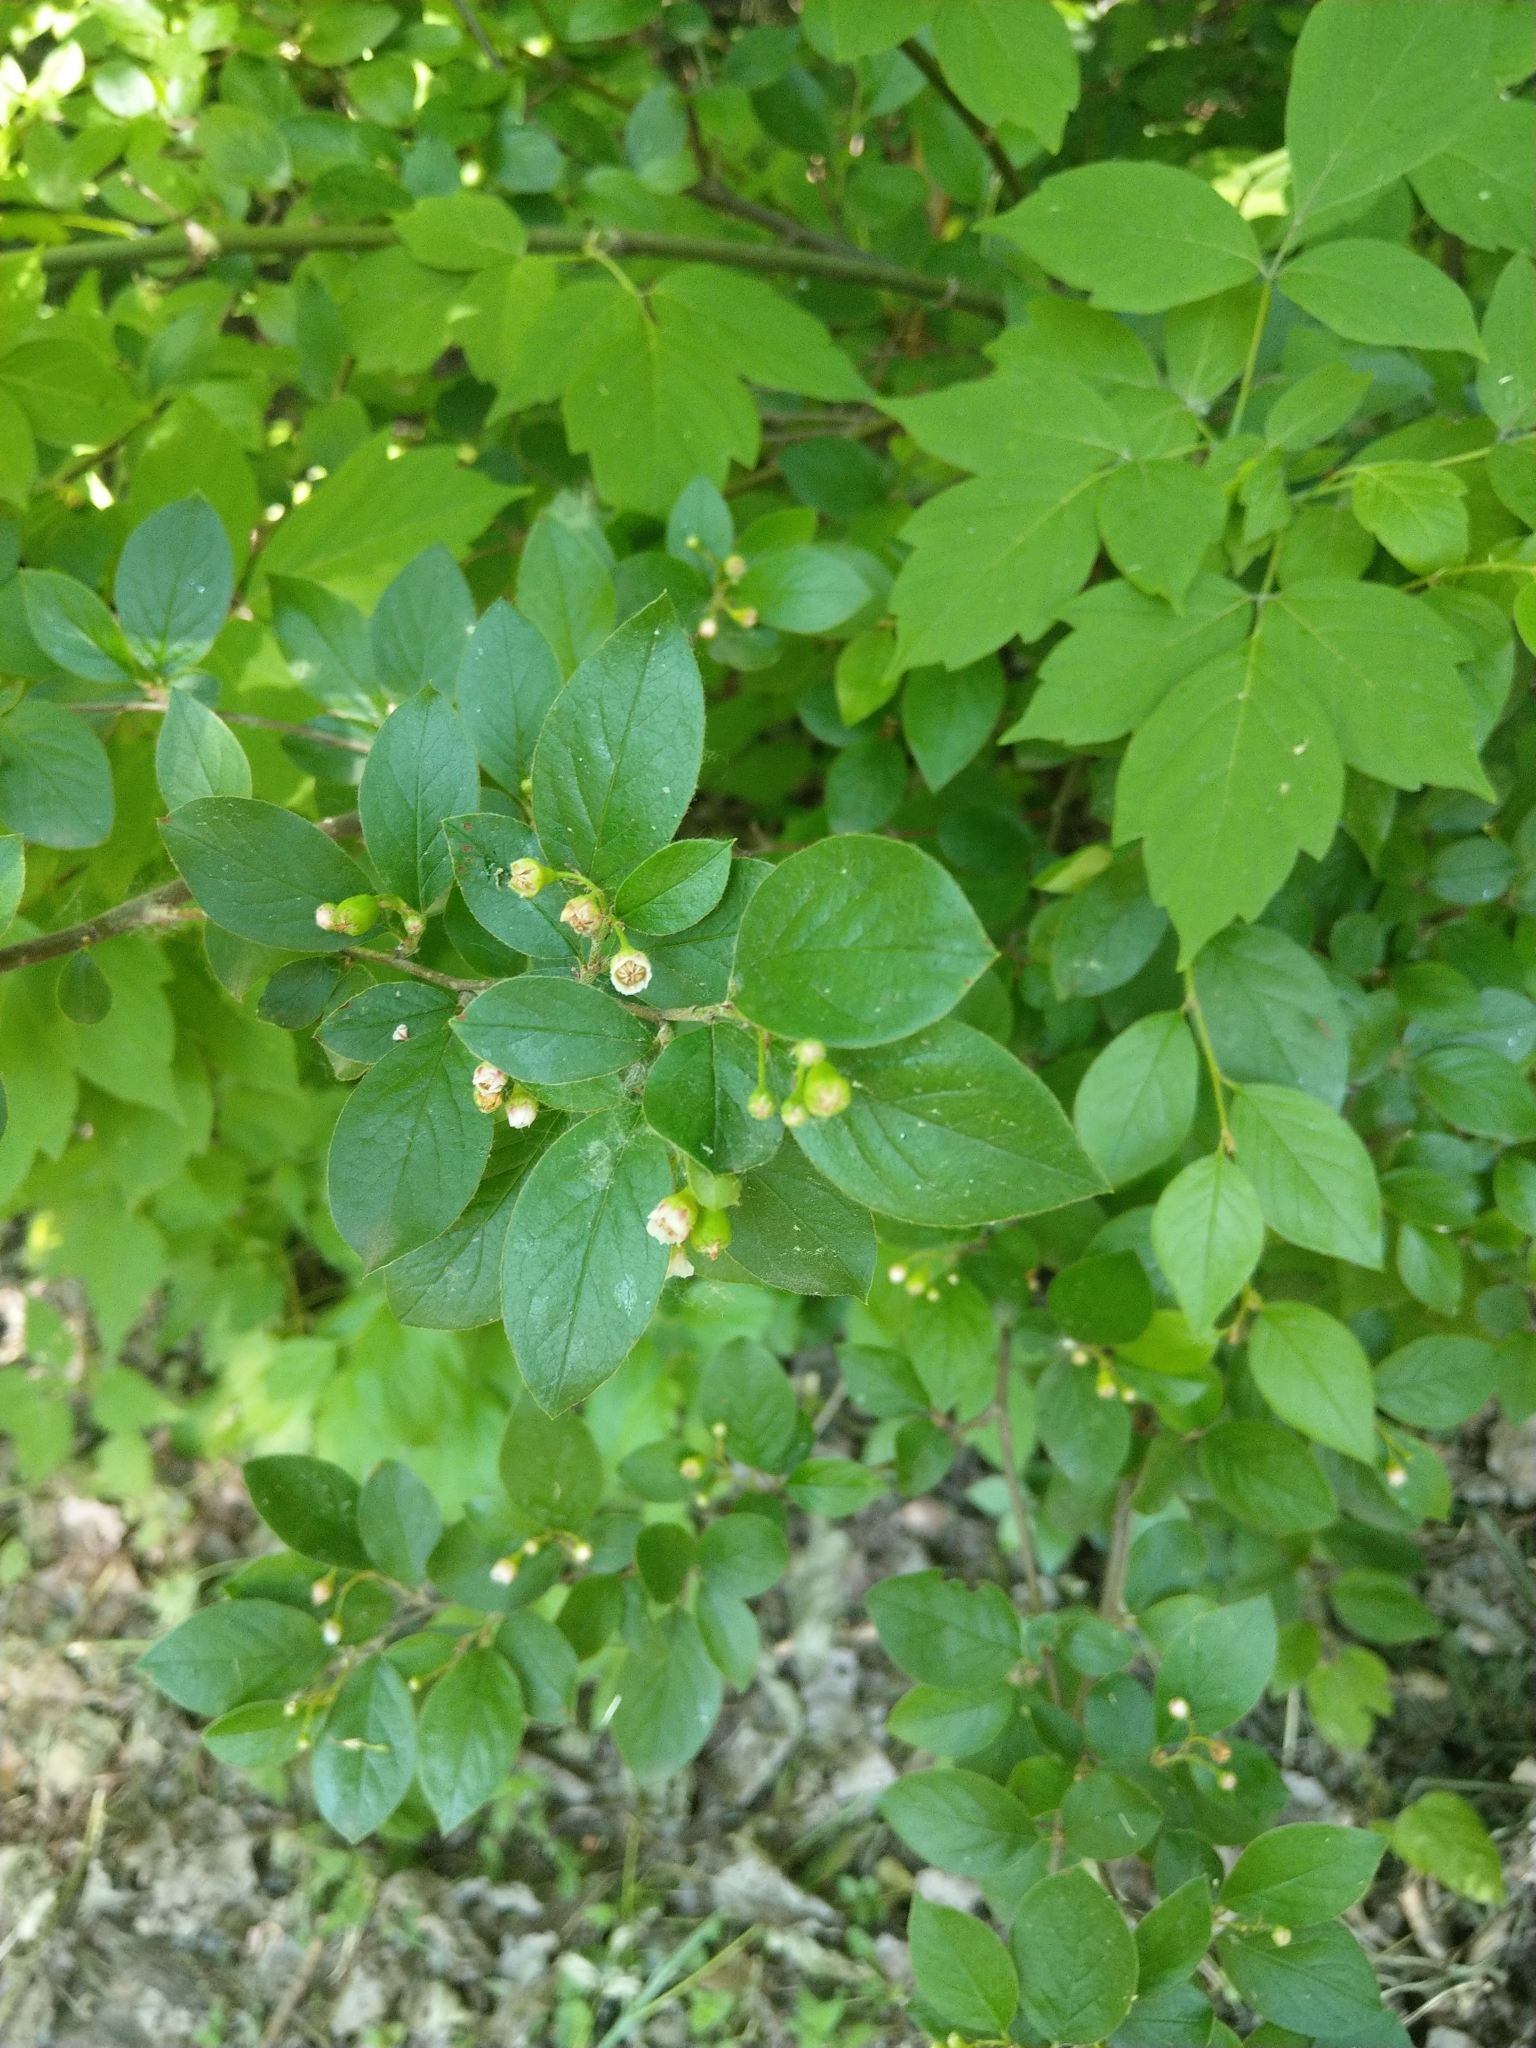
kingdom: Plantae
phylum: Tracheophyta
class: Magnoliopsida
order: Rosales
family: Rosaceae
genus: Cotoneaster
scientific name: Cotoneaster acutifolius
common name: Peking cotoneaster
